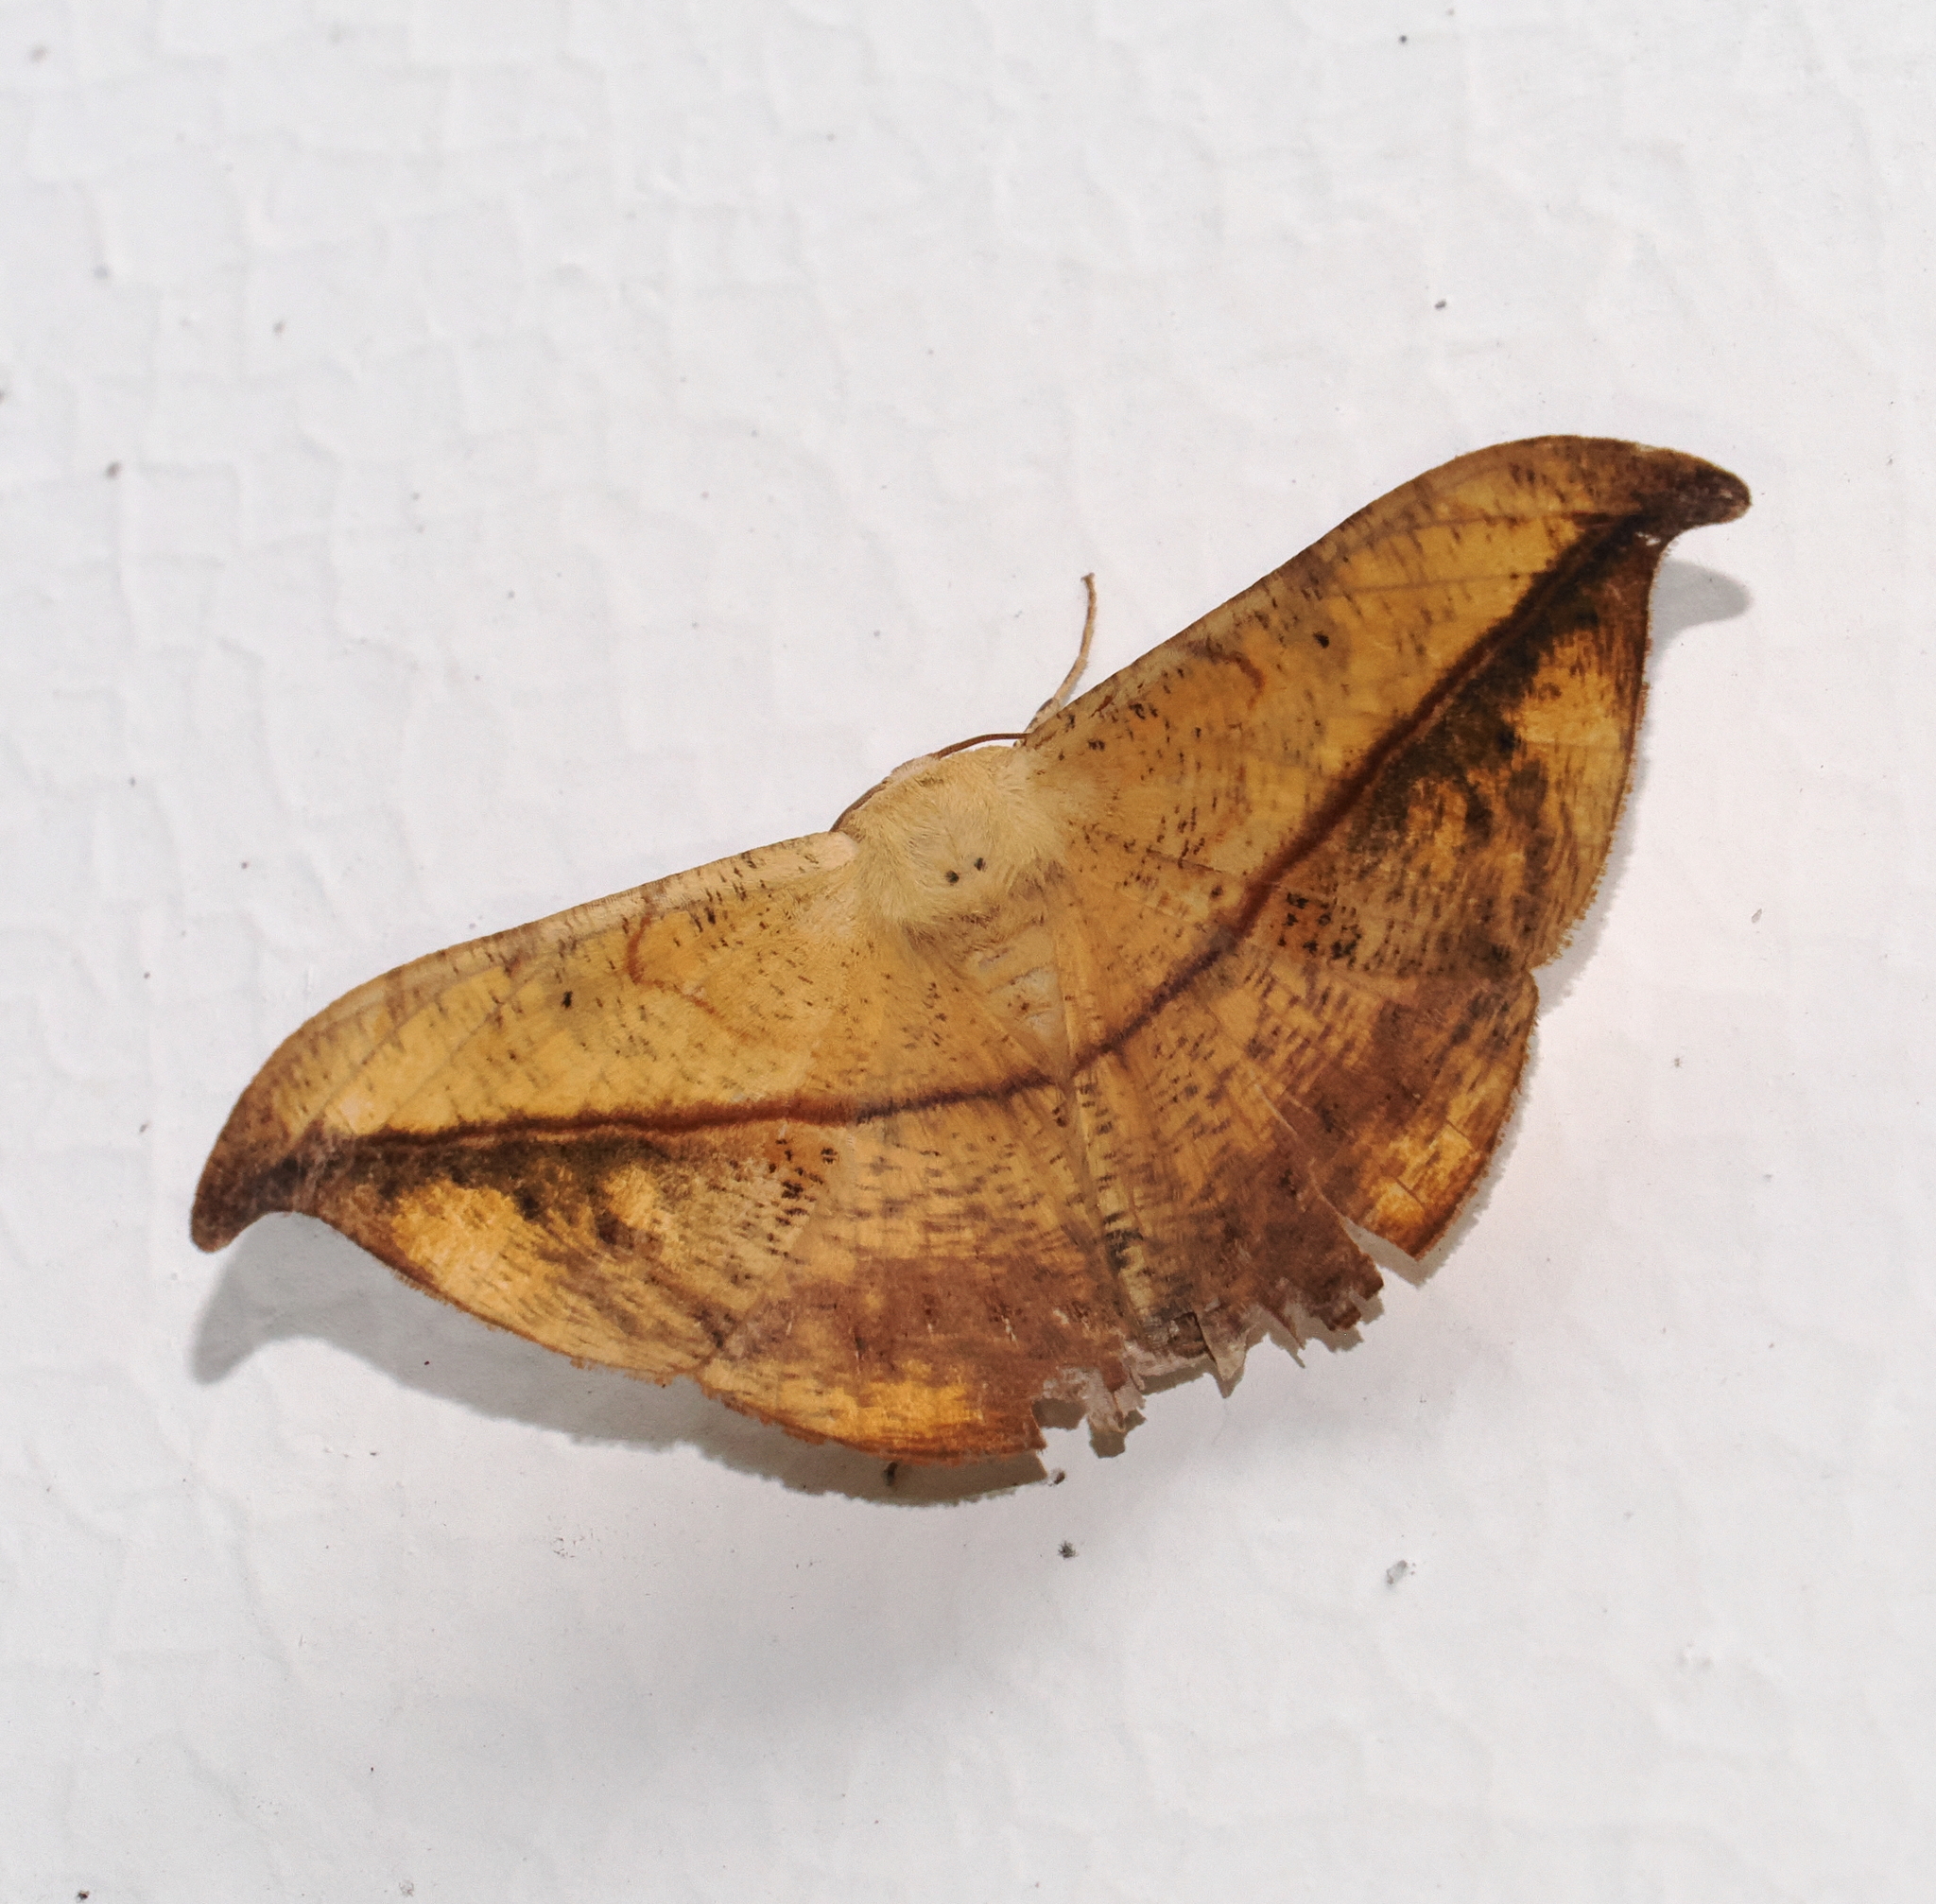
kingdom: Animalia
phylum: Arthropoda
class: Insecta
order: Lepidoptera
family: Geometridae
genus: Oxydia
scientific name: Oxydia platypterata
